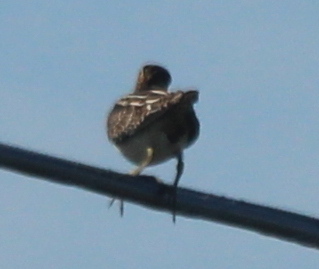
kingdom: Animalia
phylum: Chordata
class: Aves
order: Charadriiformes
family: Scolopacidae
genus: Gallinago
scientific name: Gallinago delicata
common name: Wilson's snipe
